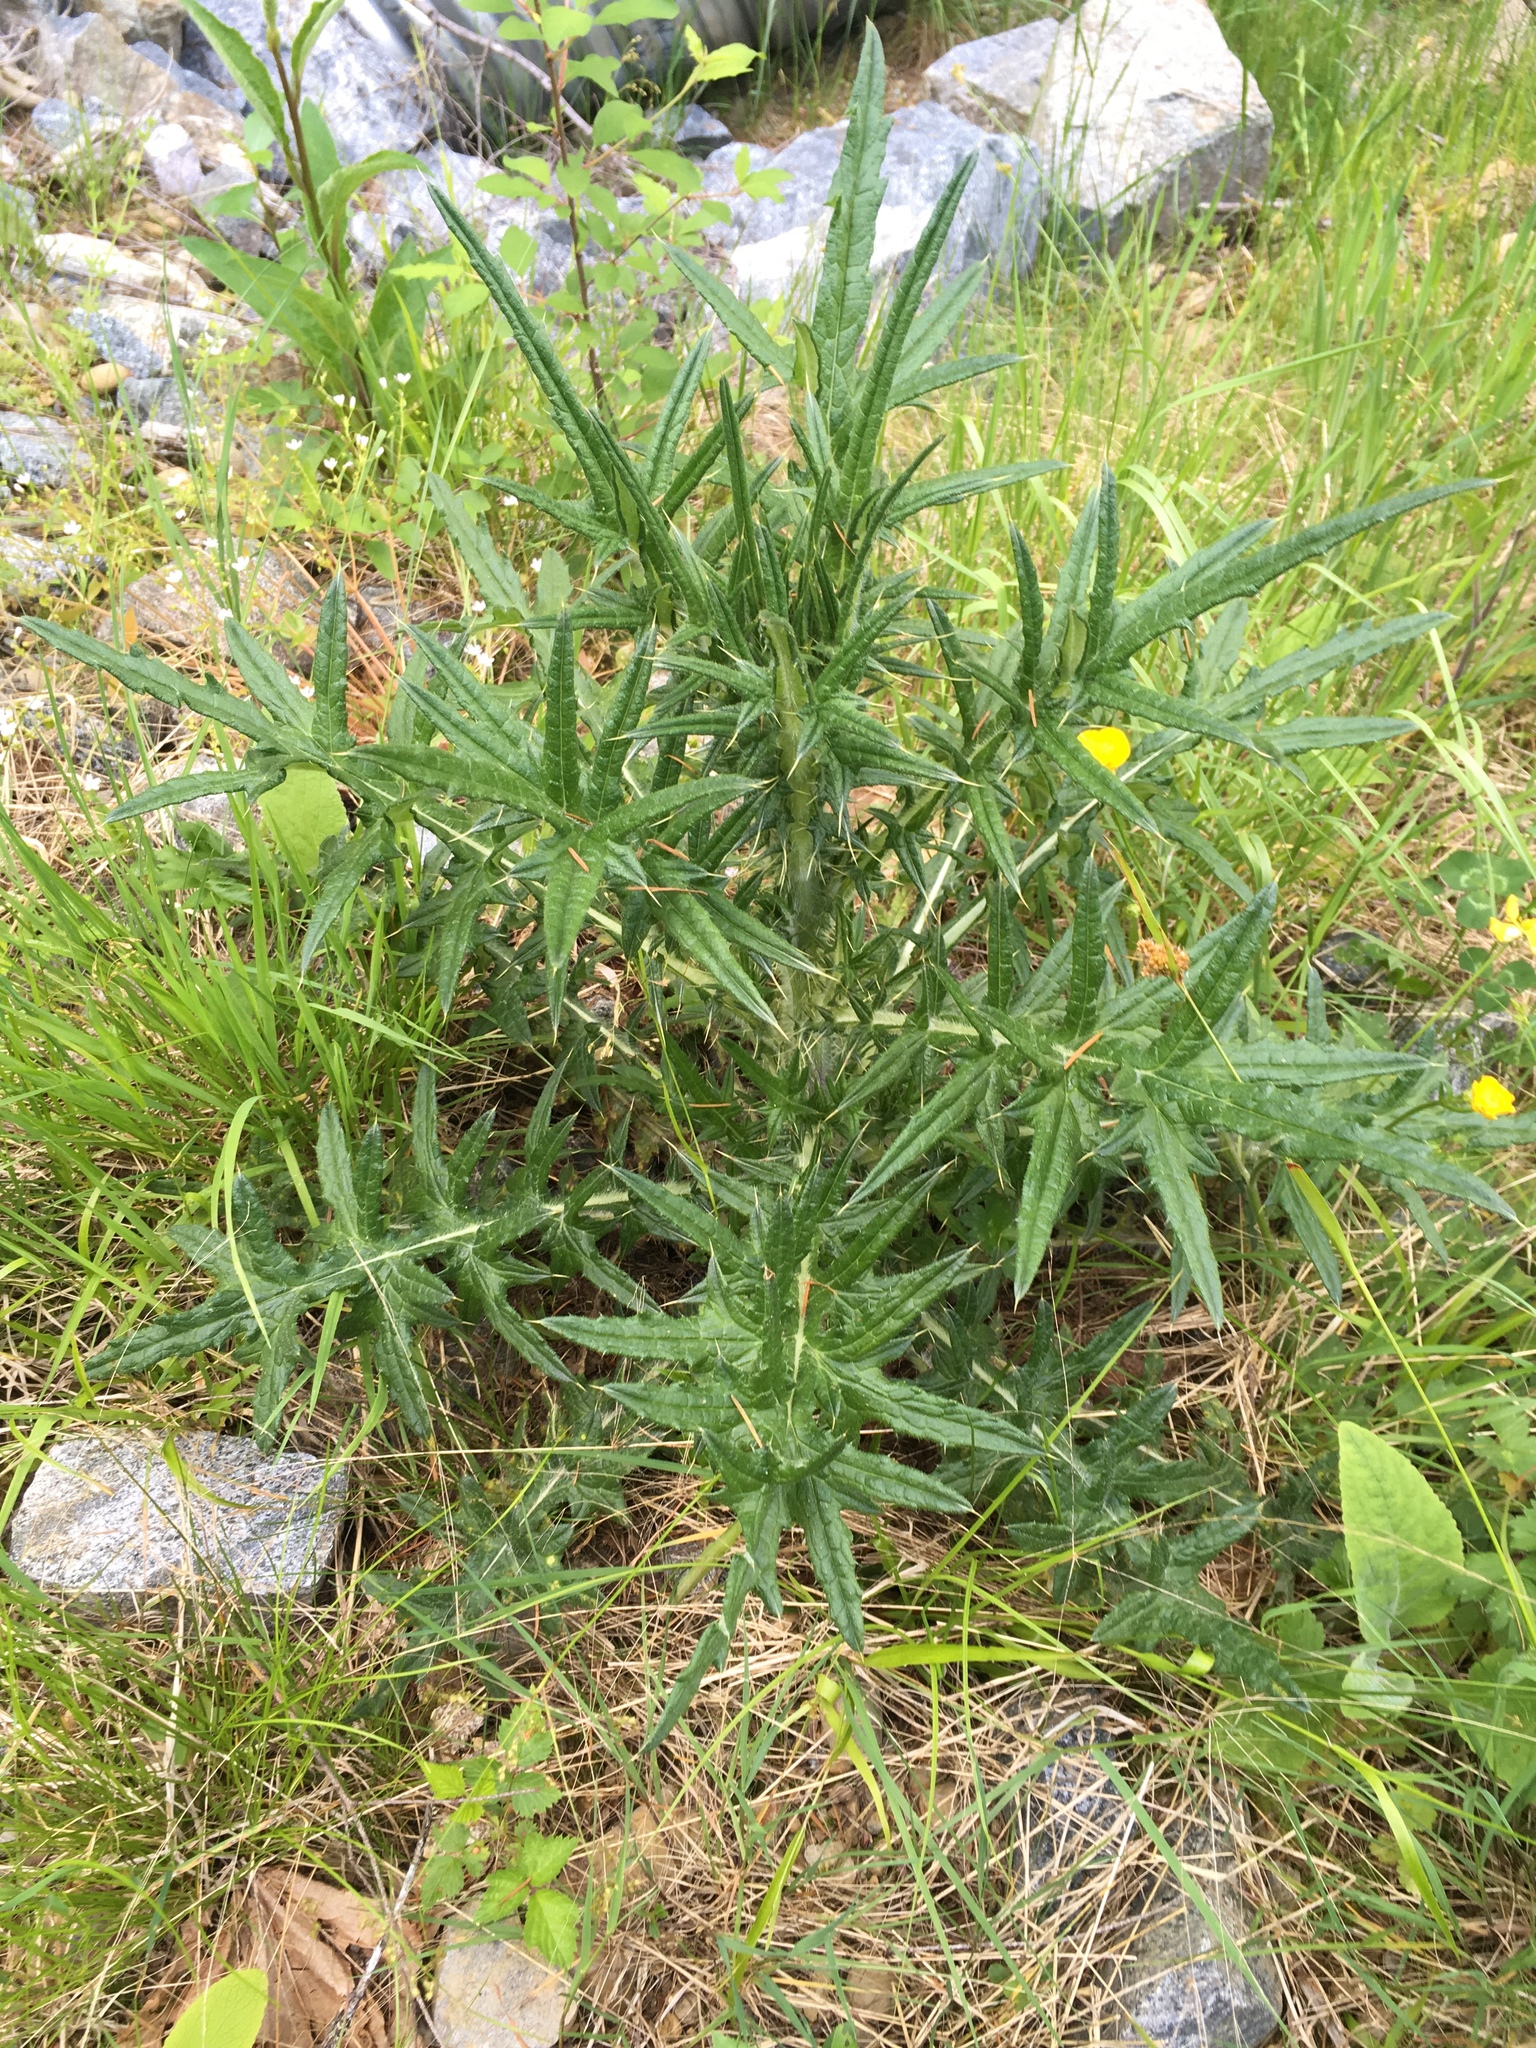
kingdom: Plantae
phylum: Tracheophyta
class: Magnoliopsida
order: Asterales
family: Asteraceae
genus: Cirsium
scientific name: Cirsium vulgare
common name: Bull thistle
